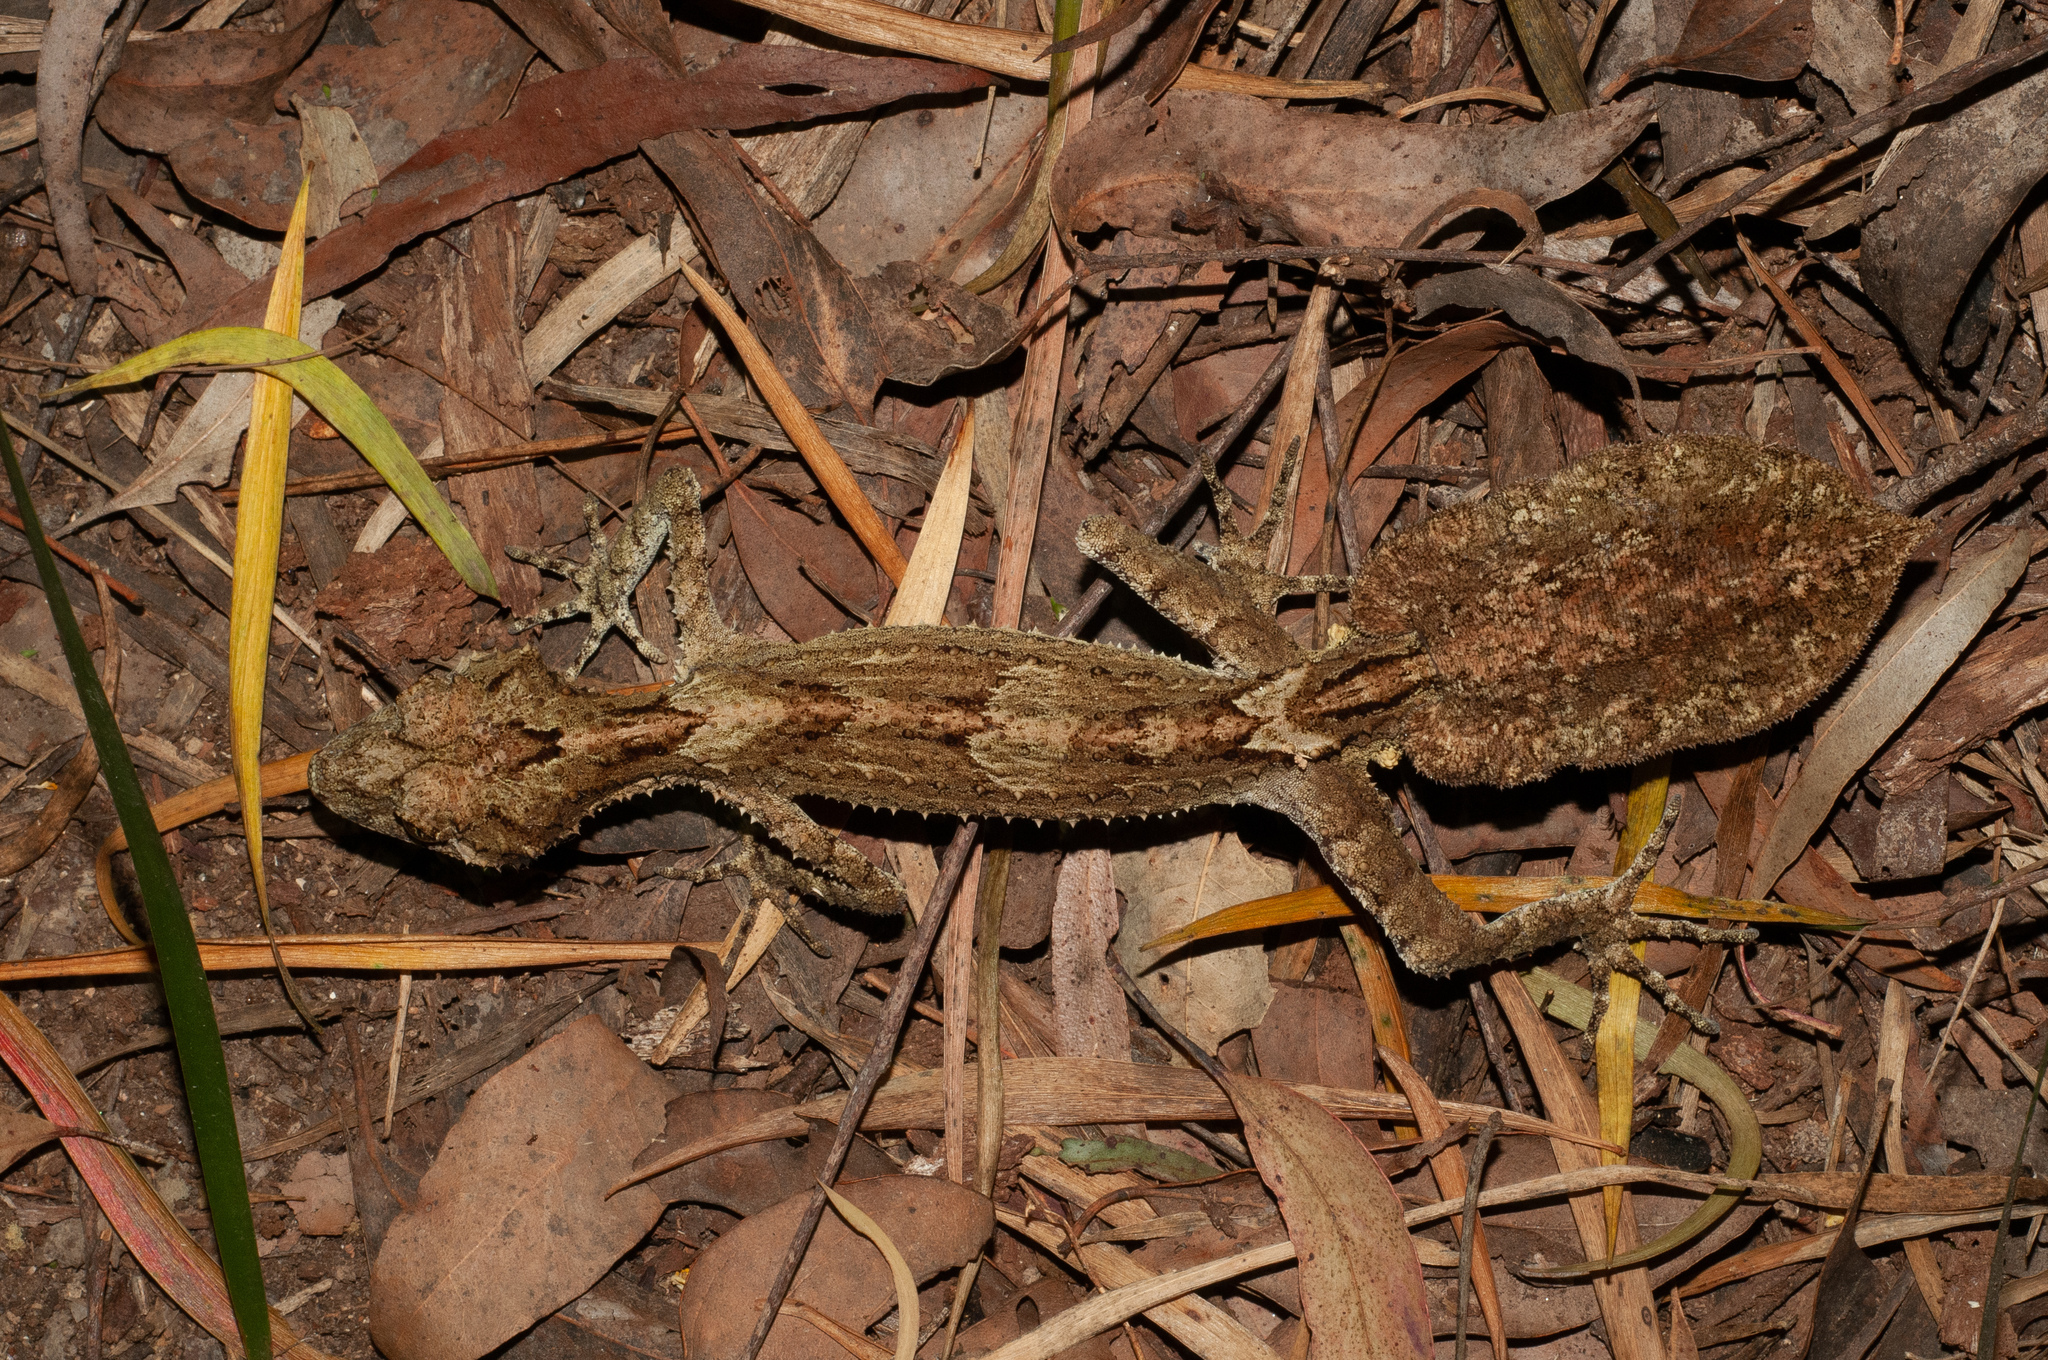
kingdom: Animalia
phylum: Chordata
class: Squamata
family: Carphodactylidae
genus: Saltuarius
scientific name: Saltuarius swaini
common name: Southern leaf-tailed gecko
